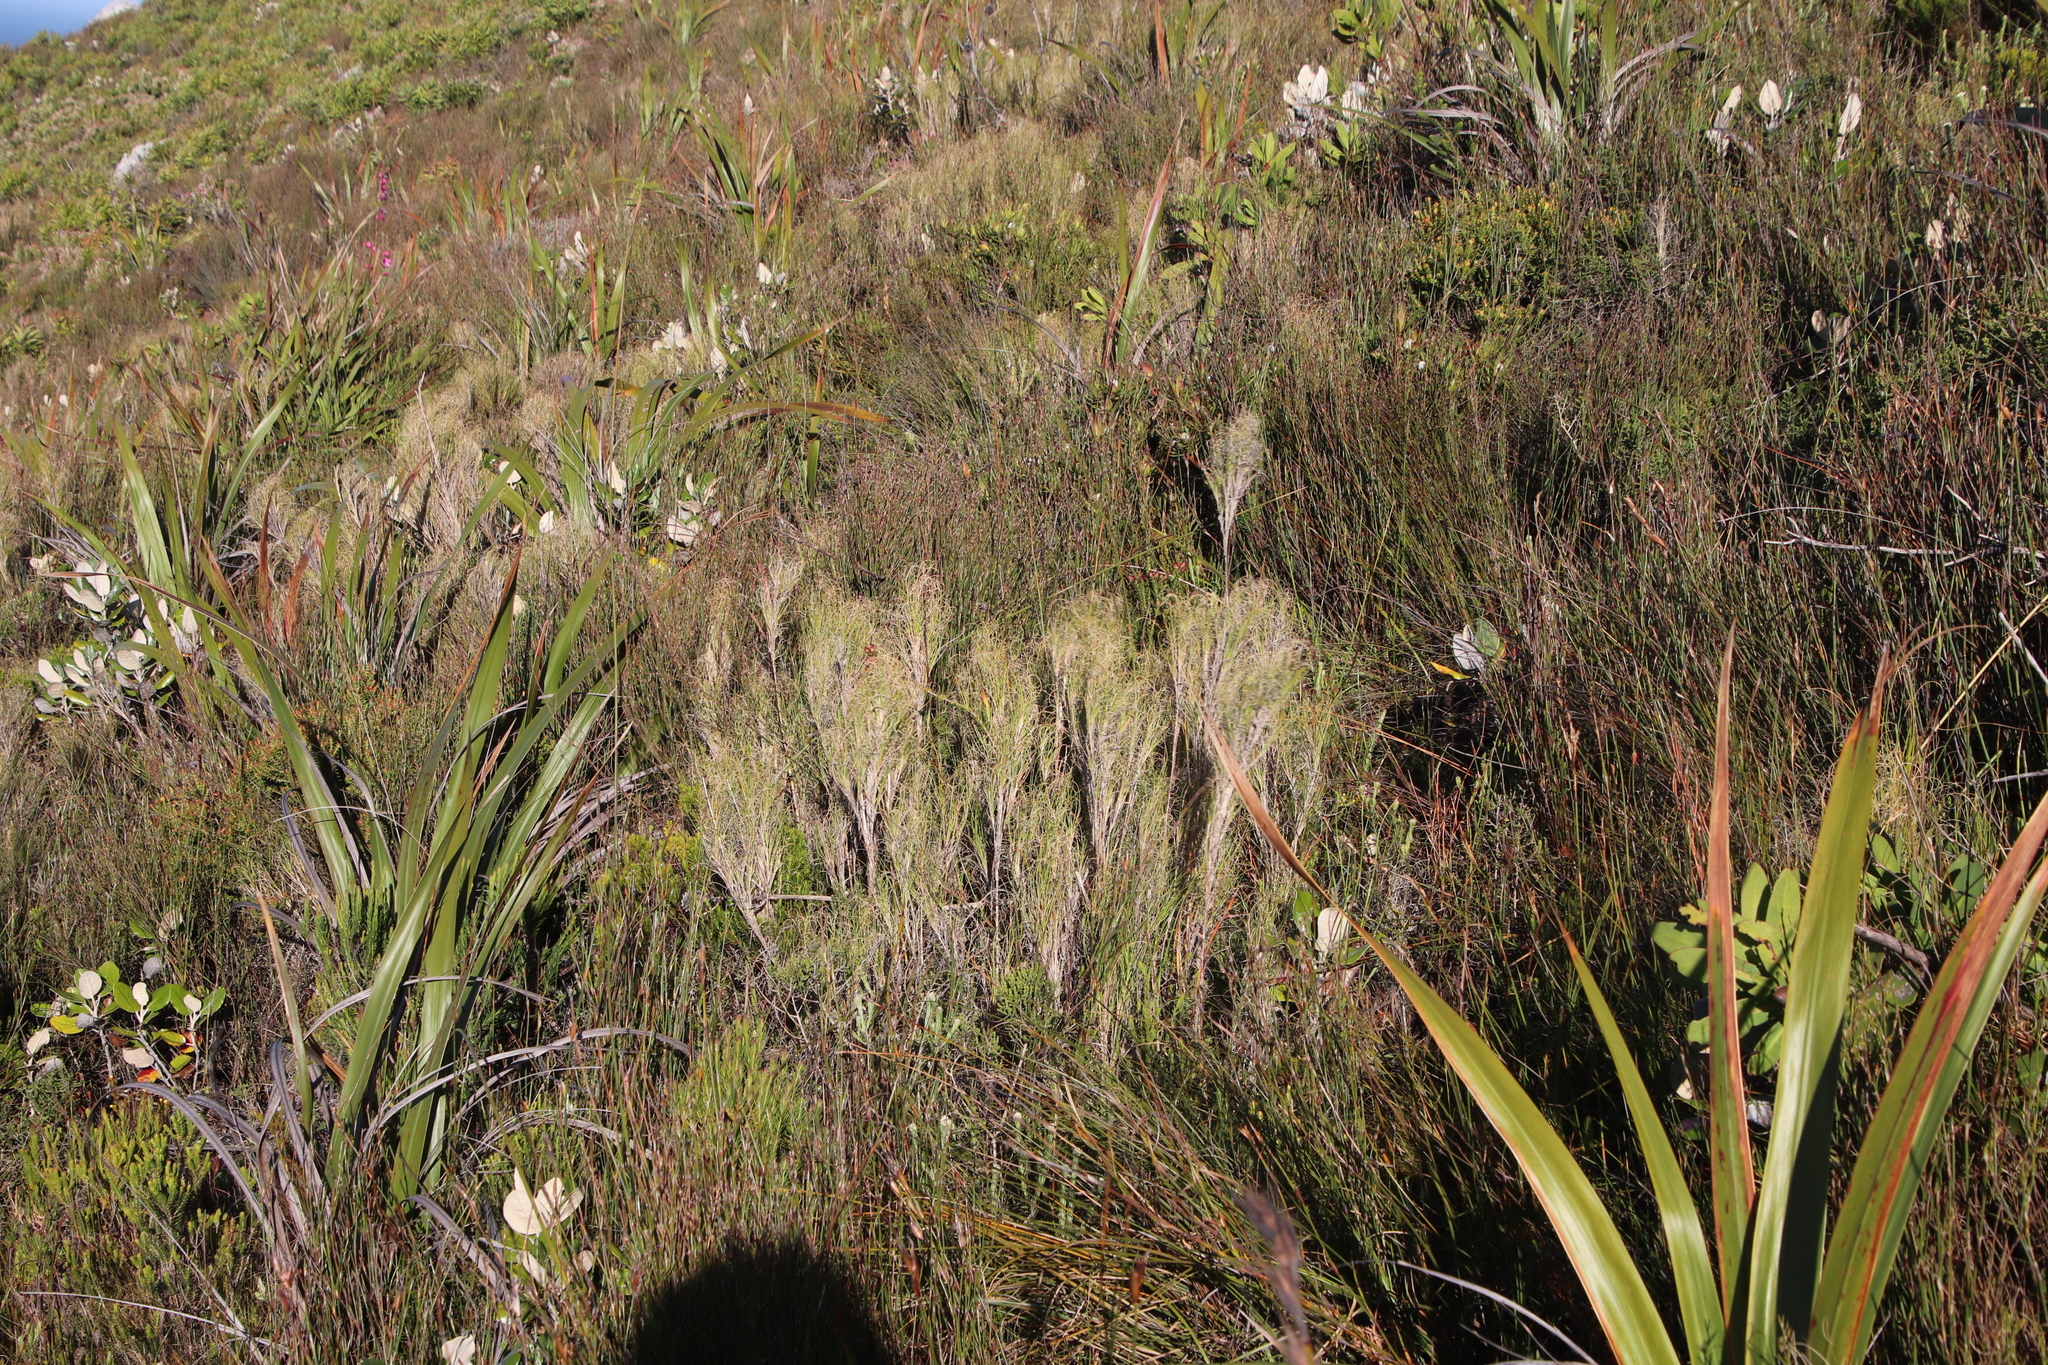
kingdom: Plantae
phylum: Tracheophyta
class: Liliopsida
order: Poales
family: Poaceae
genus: Pseudopentameris
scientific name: Pseudopentameris macrantha
